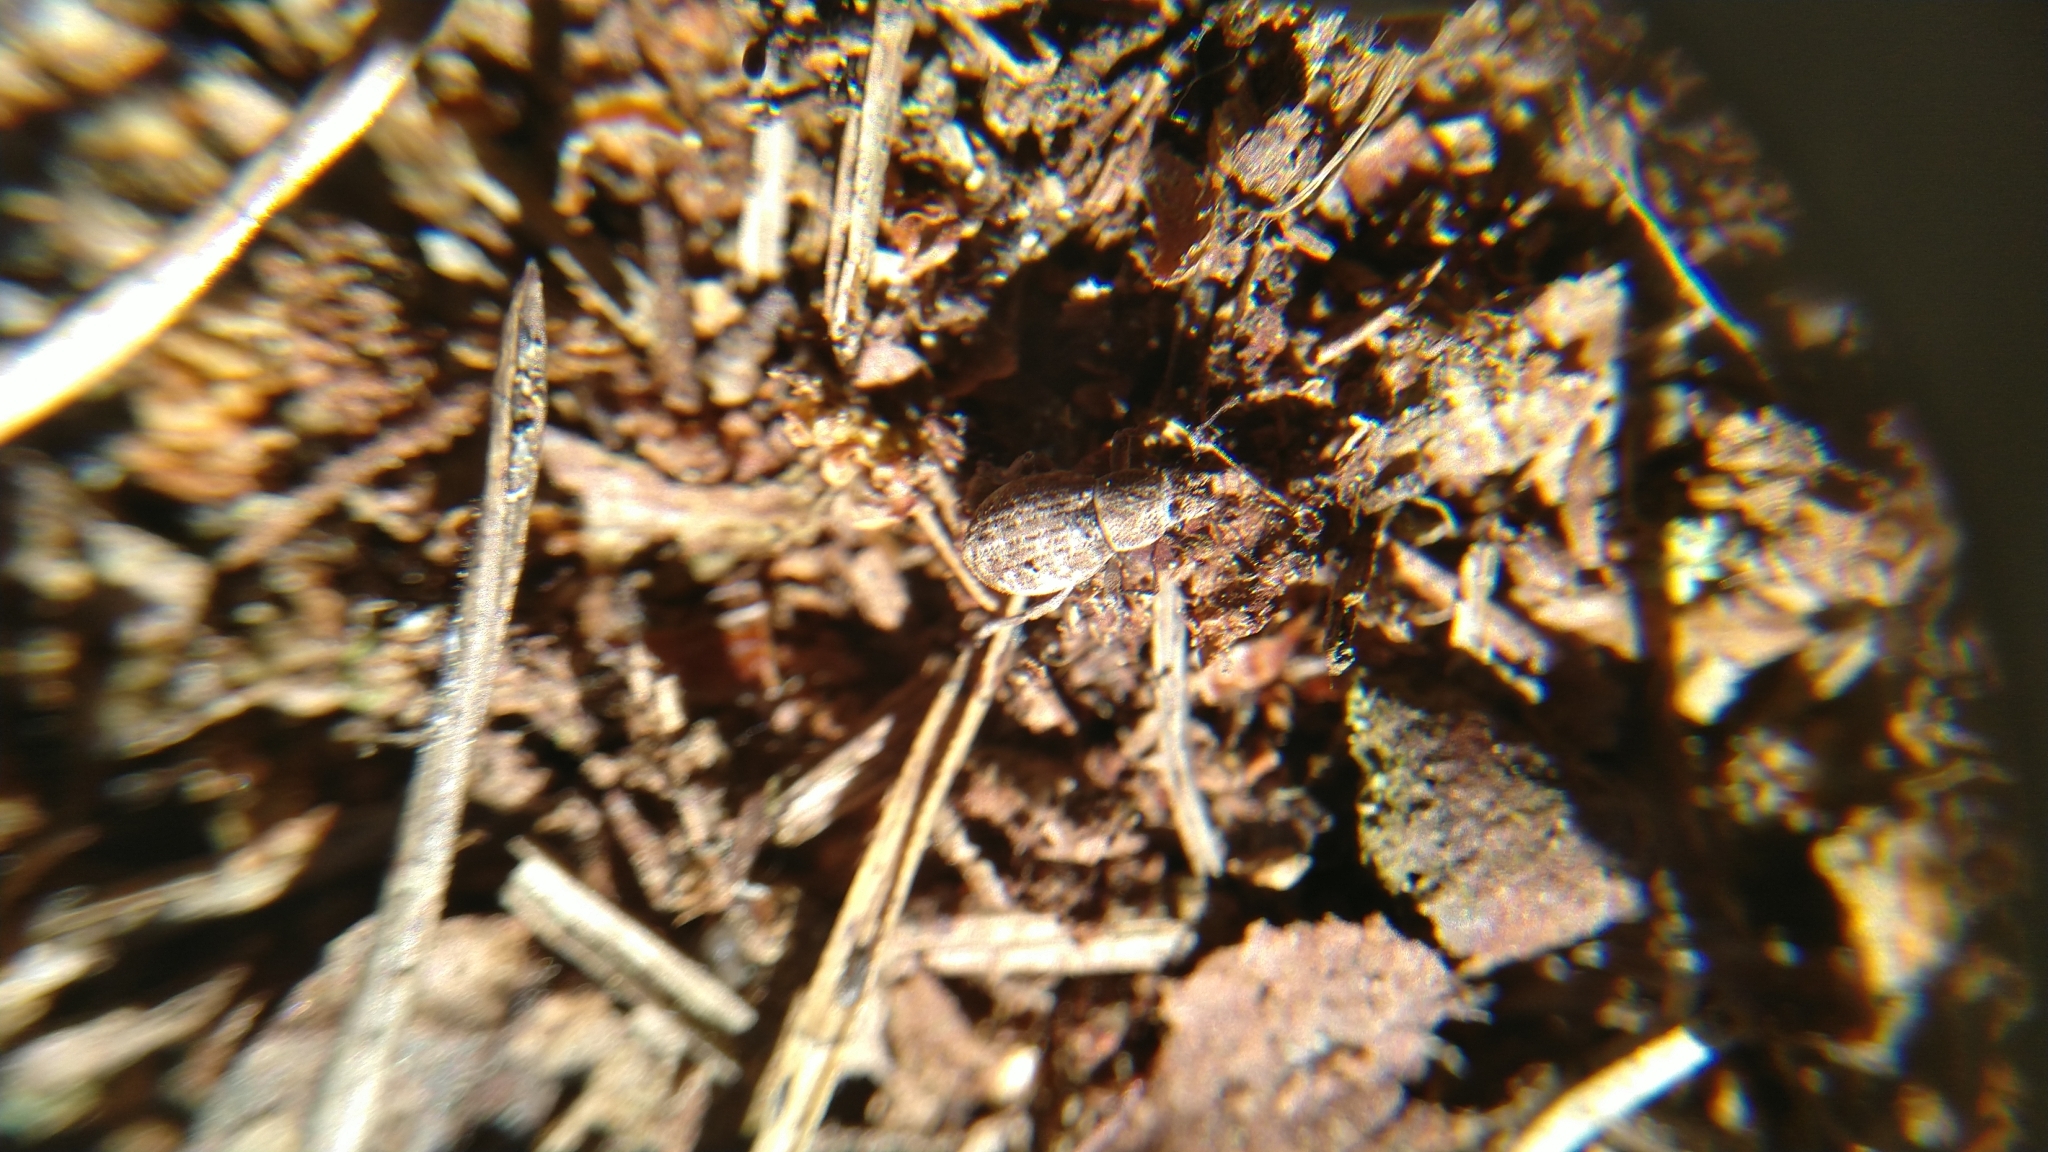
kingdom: Animalia
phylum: Arthropoda
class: Insecta
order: Coleoptera
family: Curculionidae
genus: Strophosoma
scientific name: Strophosoma capitatum
